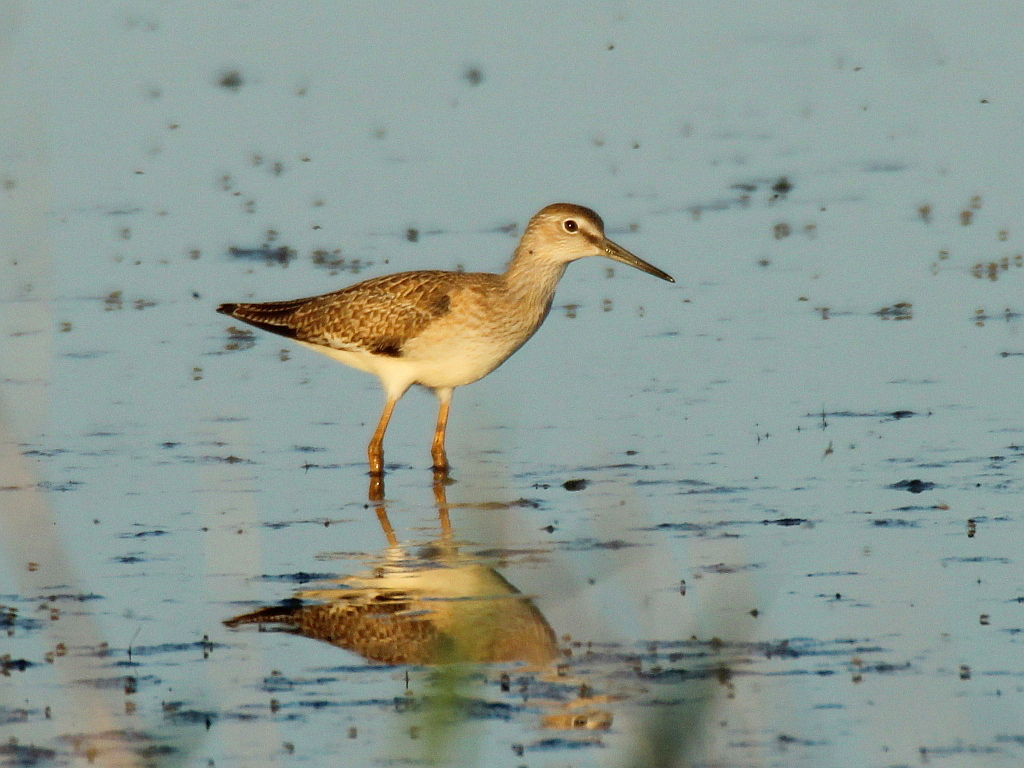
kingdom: Animalia
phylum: Chordata
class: Aves
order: Charadriiformes
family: Scolopacidae
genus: Tringa
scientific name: Tringa totanus
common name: Common redshank
